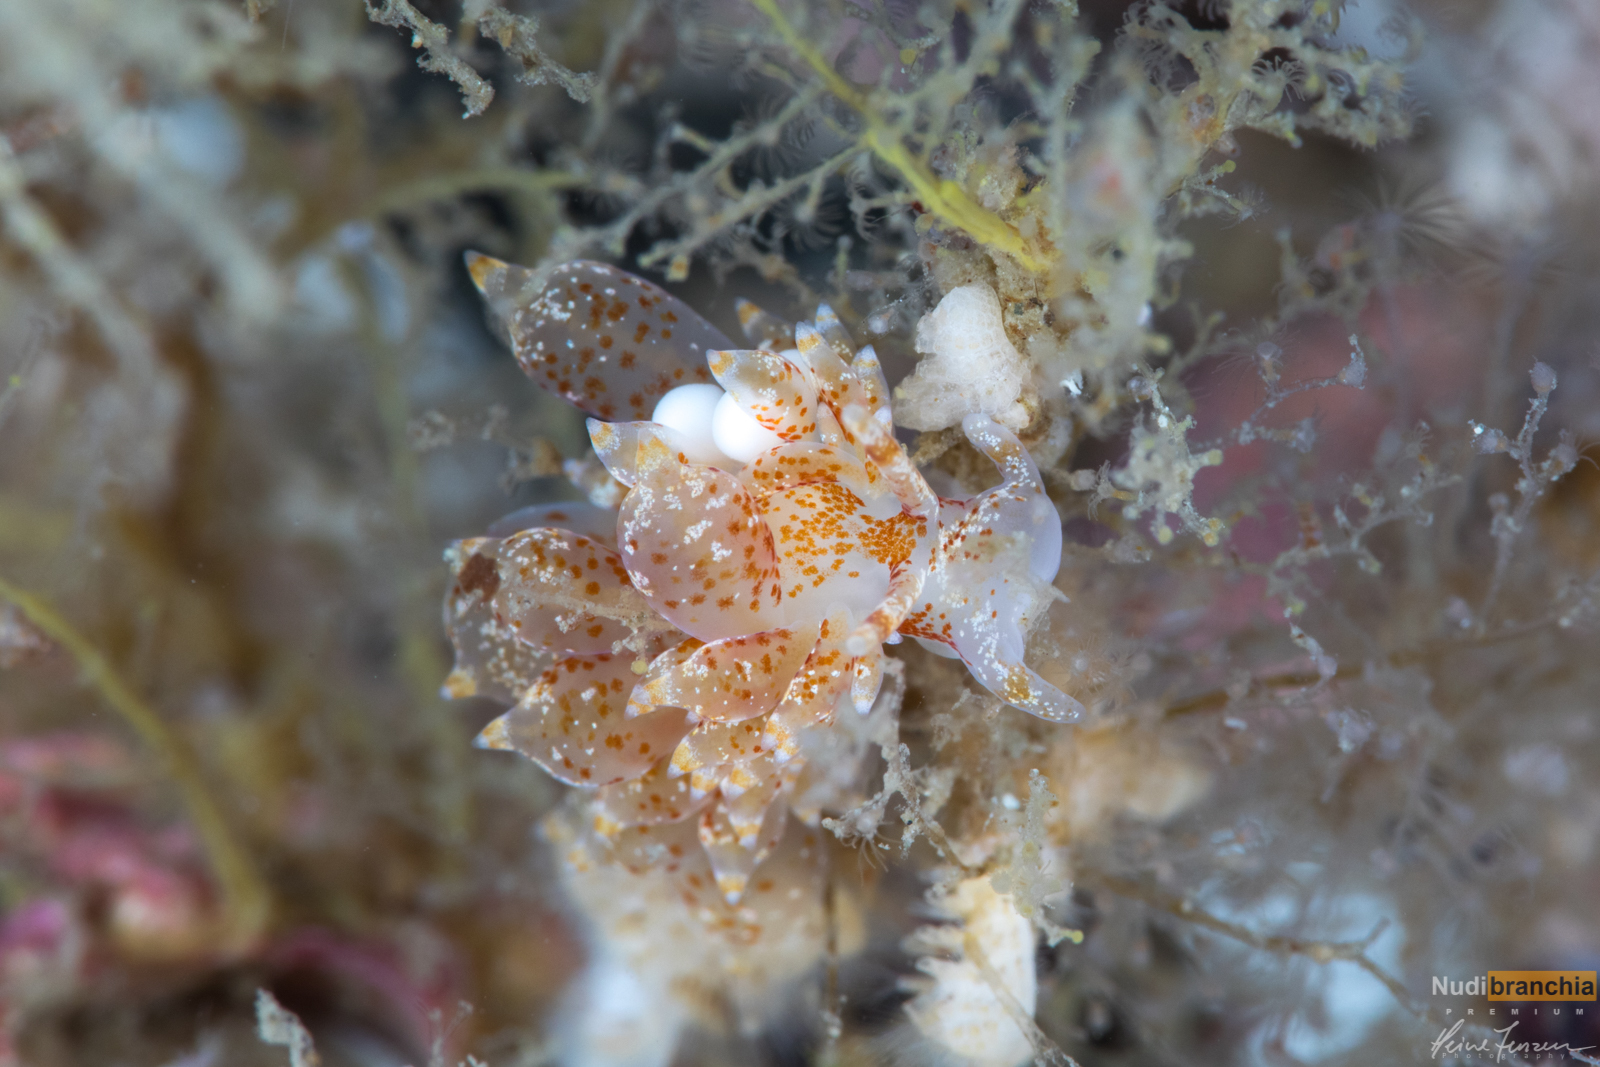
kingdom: Animalia
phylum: Mollusca
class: Gastropoda
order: Nudibranchia
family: Eubranchidae
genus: Amphorina
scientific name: Amphorina pallida
